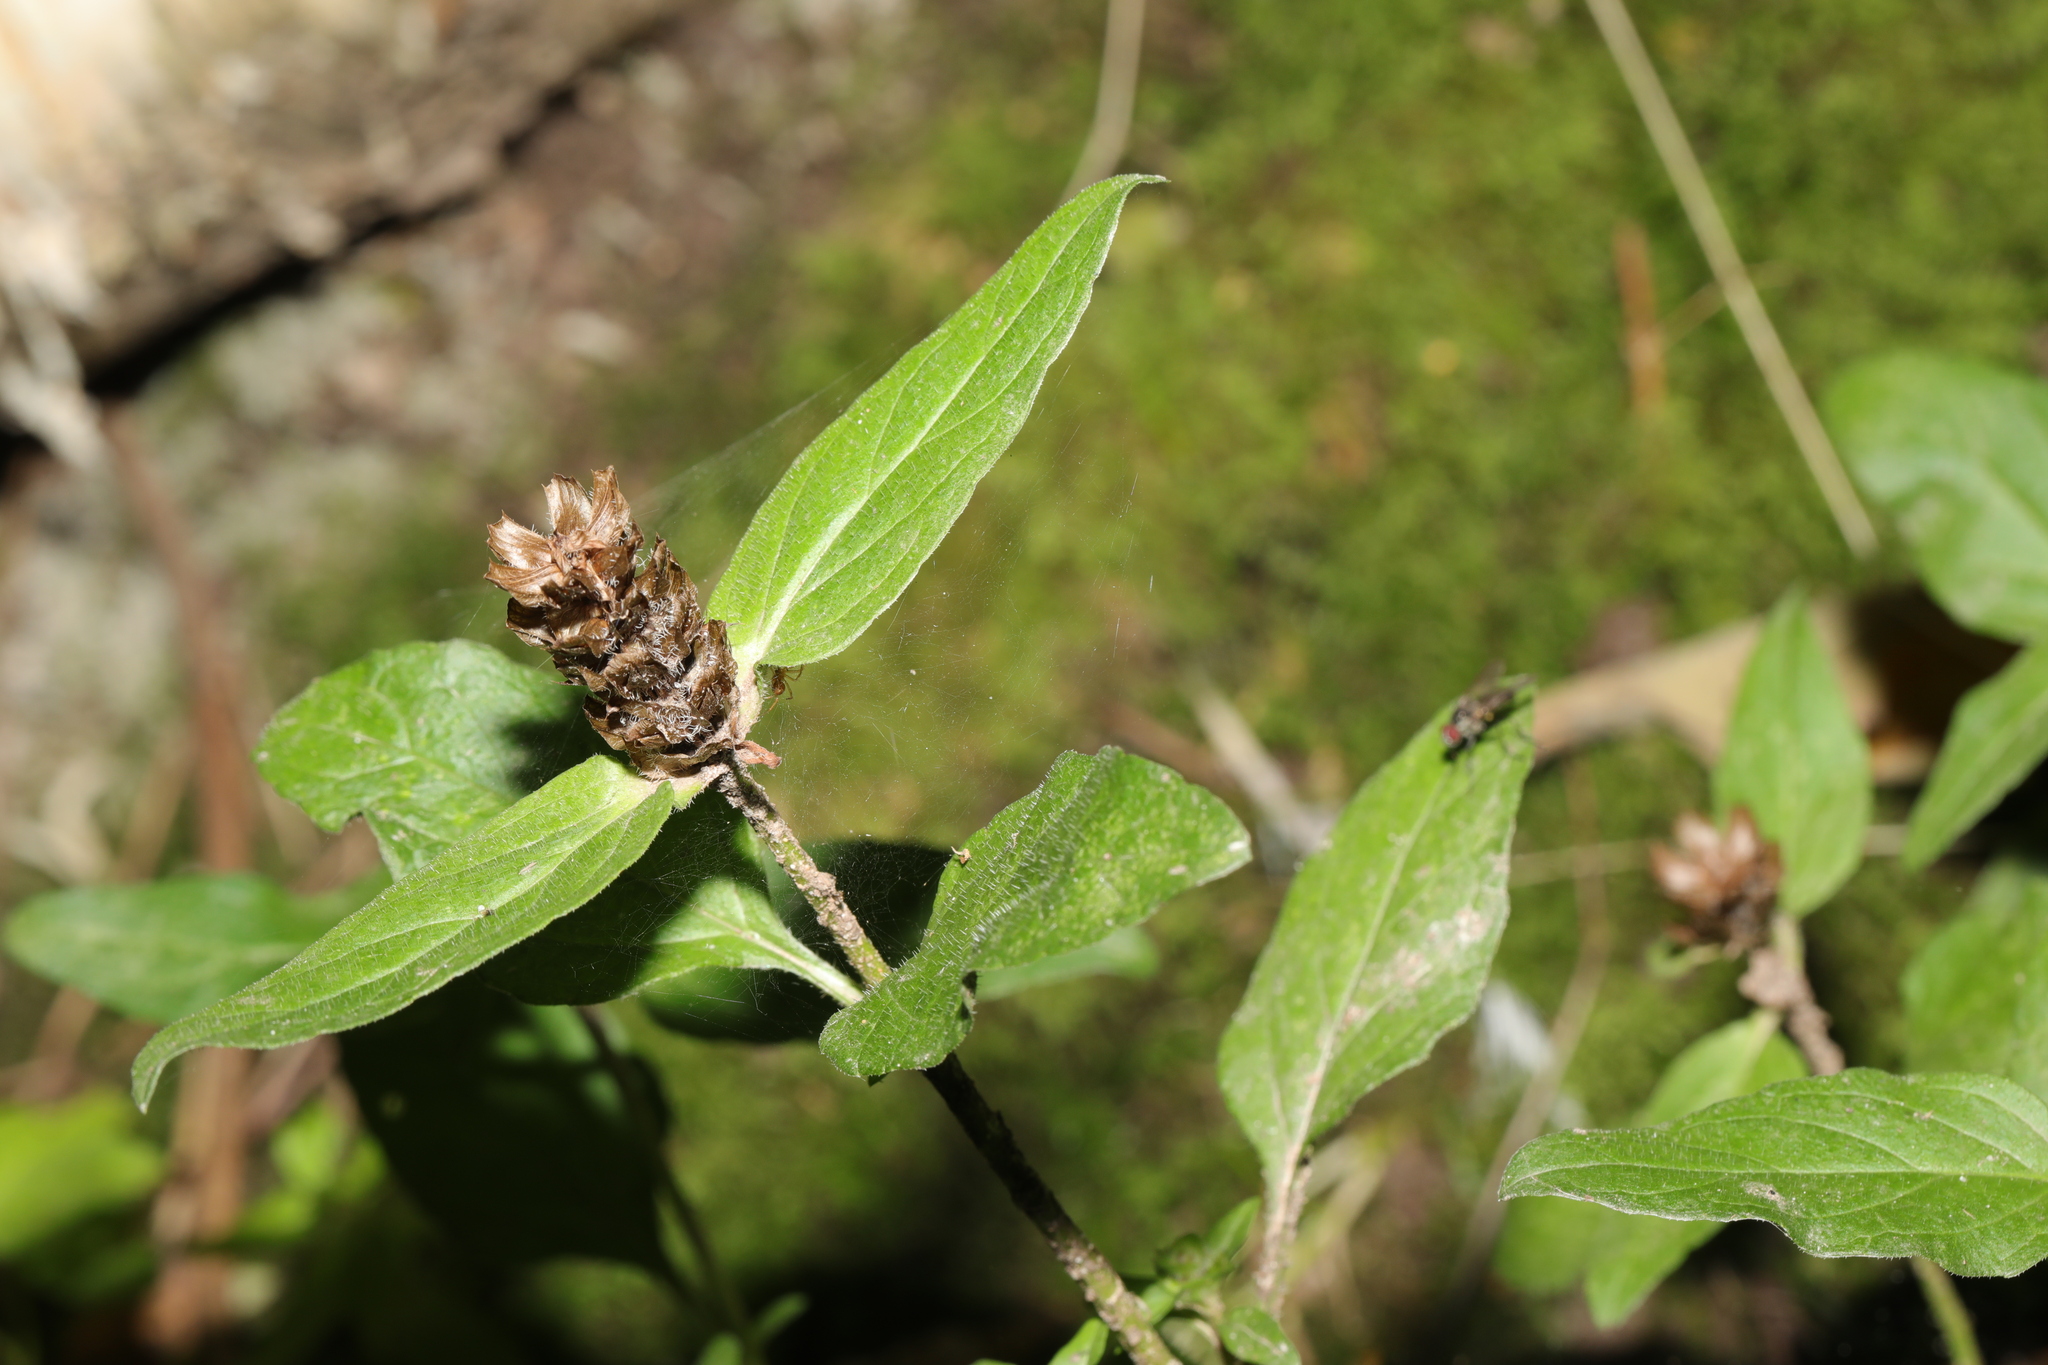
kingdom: Plantae
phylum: Tracheophyta
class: Magnoliopsida
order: Lamiales
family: Lamiaceae
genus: Prunella
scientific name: Prunella vulgaris
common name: Heal-all
